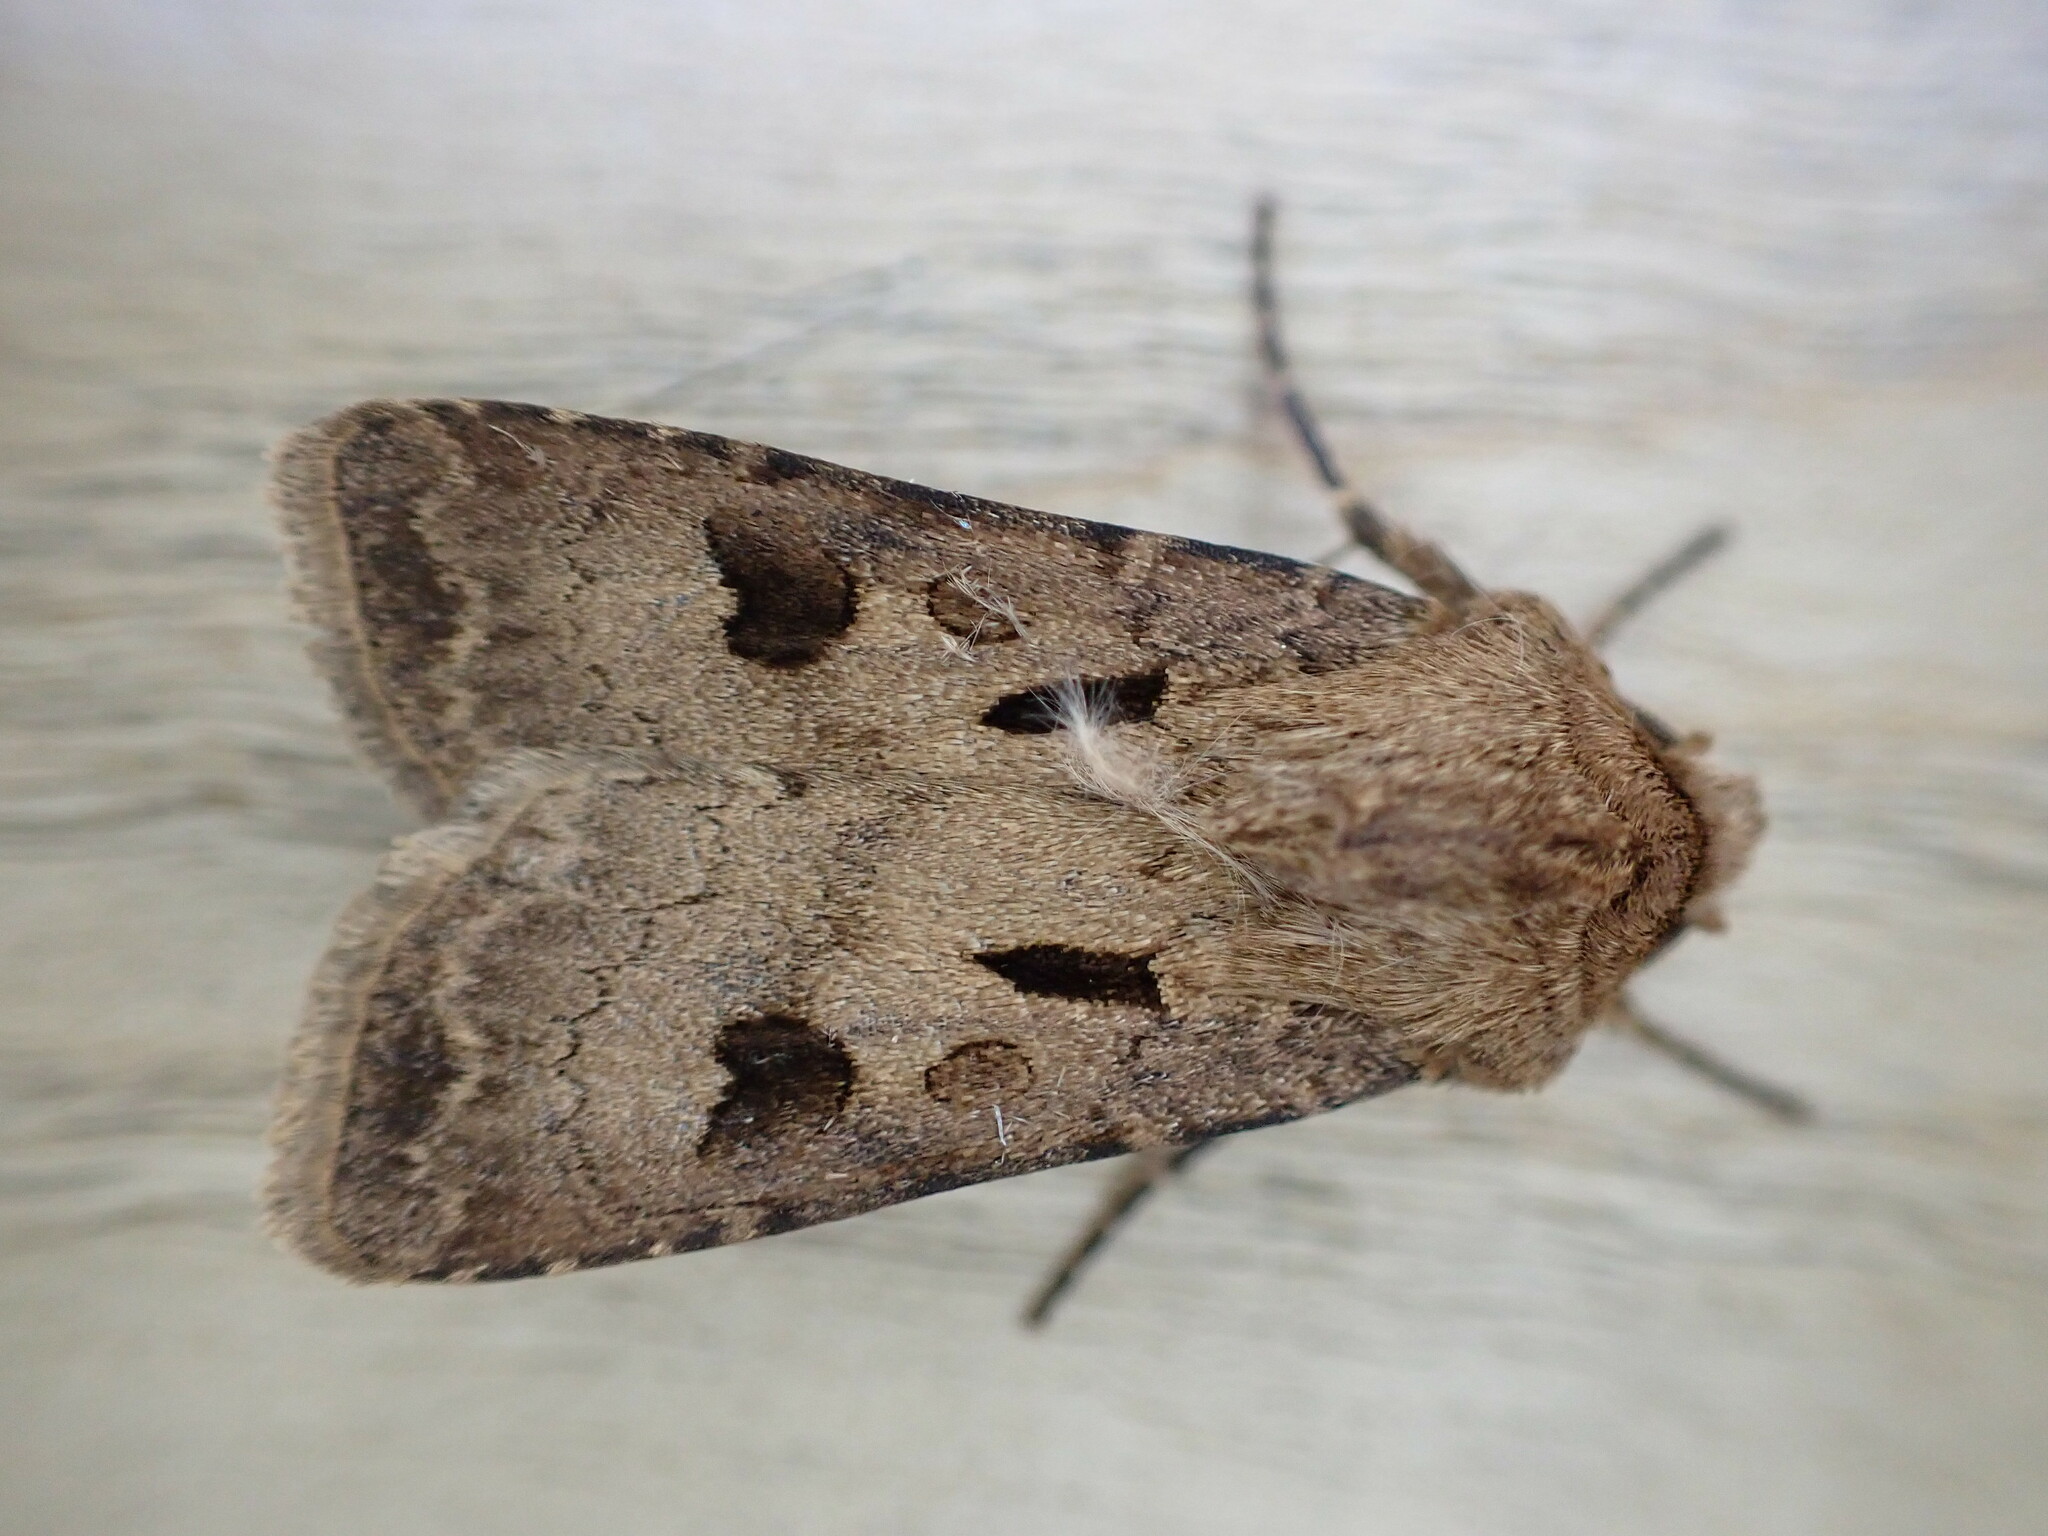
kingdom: Animalia
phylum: Arthropoda
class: Insecta
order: Lepidoptera
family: Noctuidae
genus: Agrotis
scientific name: Agrotis exclamationis
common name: Heart and dart
